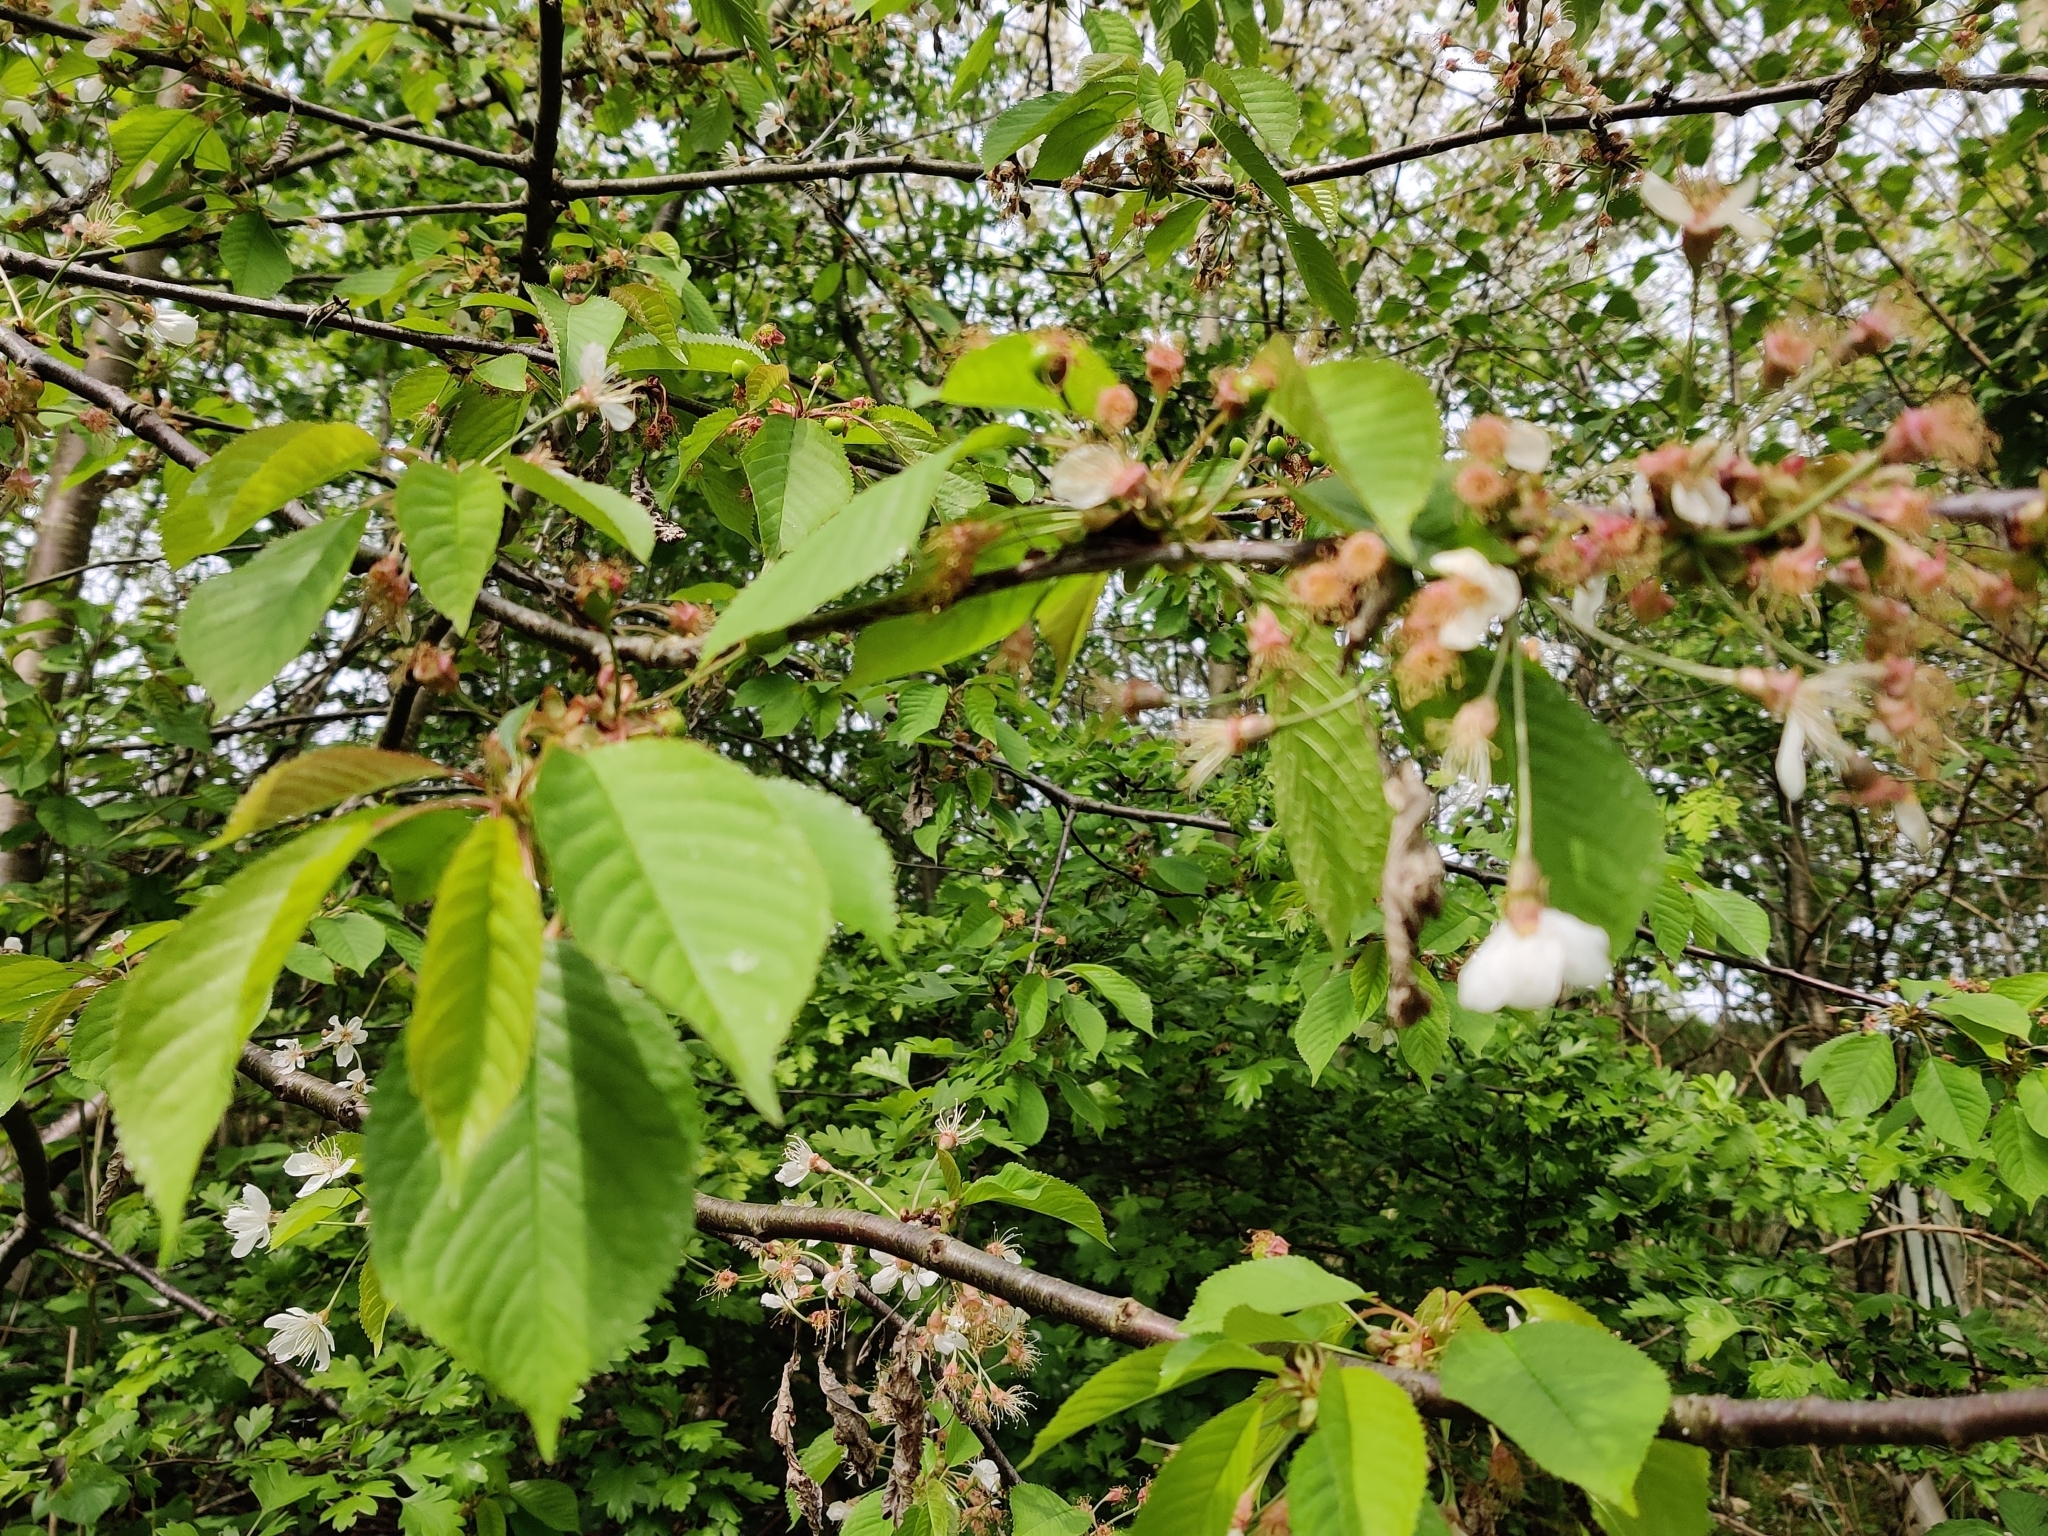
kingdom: Plantae
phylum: Tracheophyta
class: Magnoliopsida
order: Rosales
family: Rosaceae
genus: Prunus
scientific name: Prunus avium
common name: Sweet cherry
